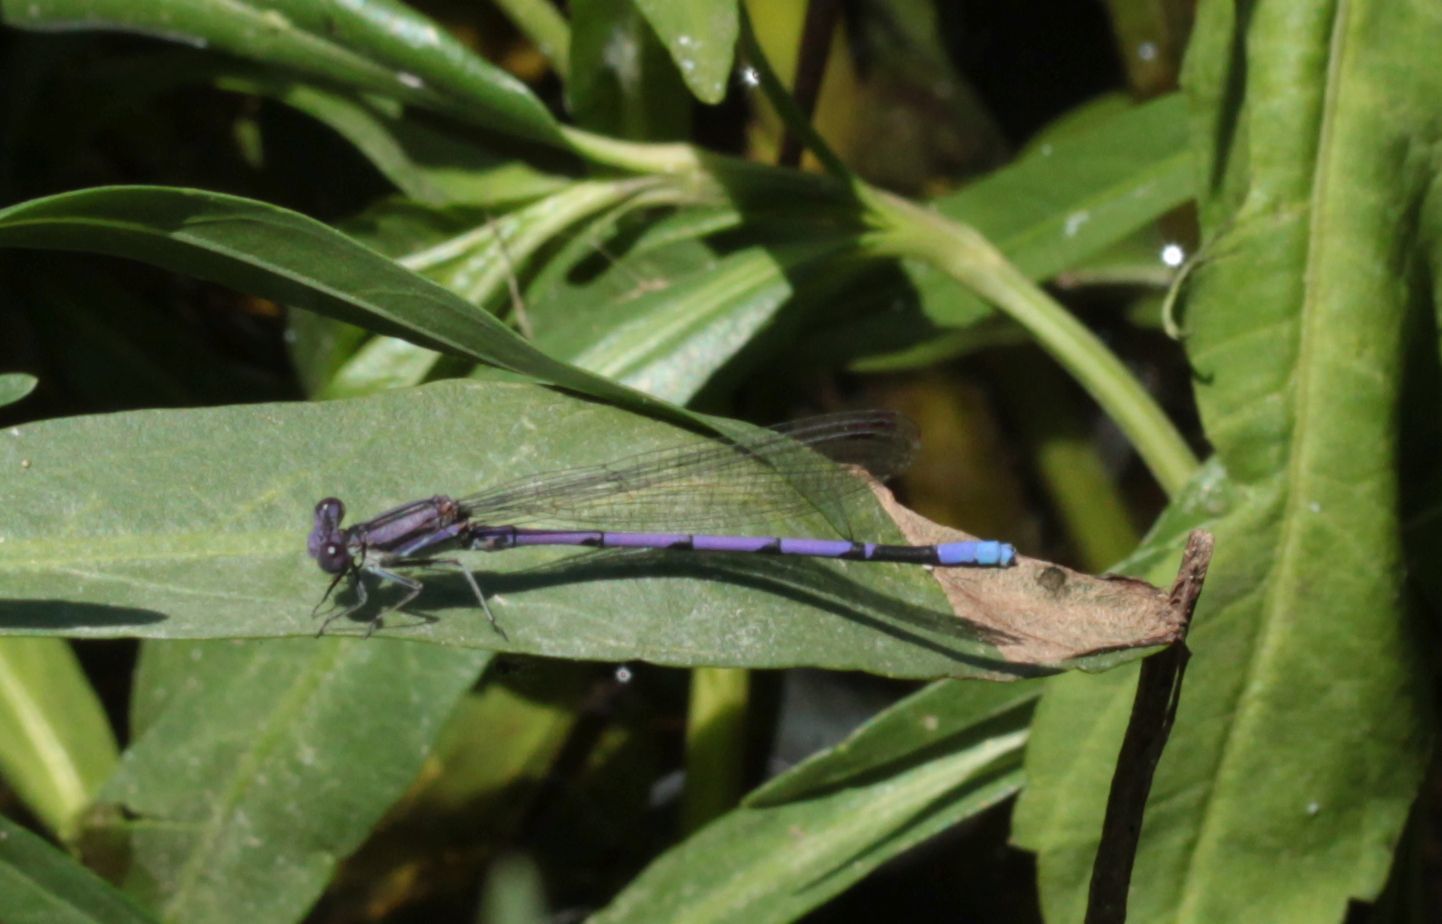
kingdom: Animalia
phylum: Arthropoda
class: Insecta
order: Odonata
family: Coenagrionidae
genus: Argia
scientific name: Argia fumipennis
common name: Variable dancer
